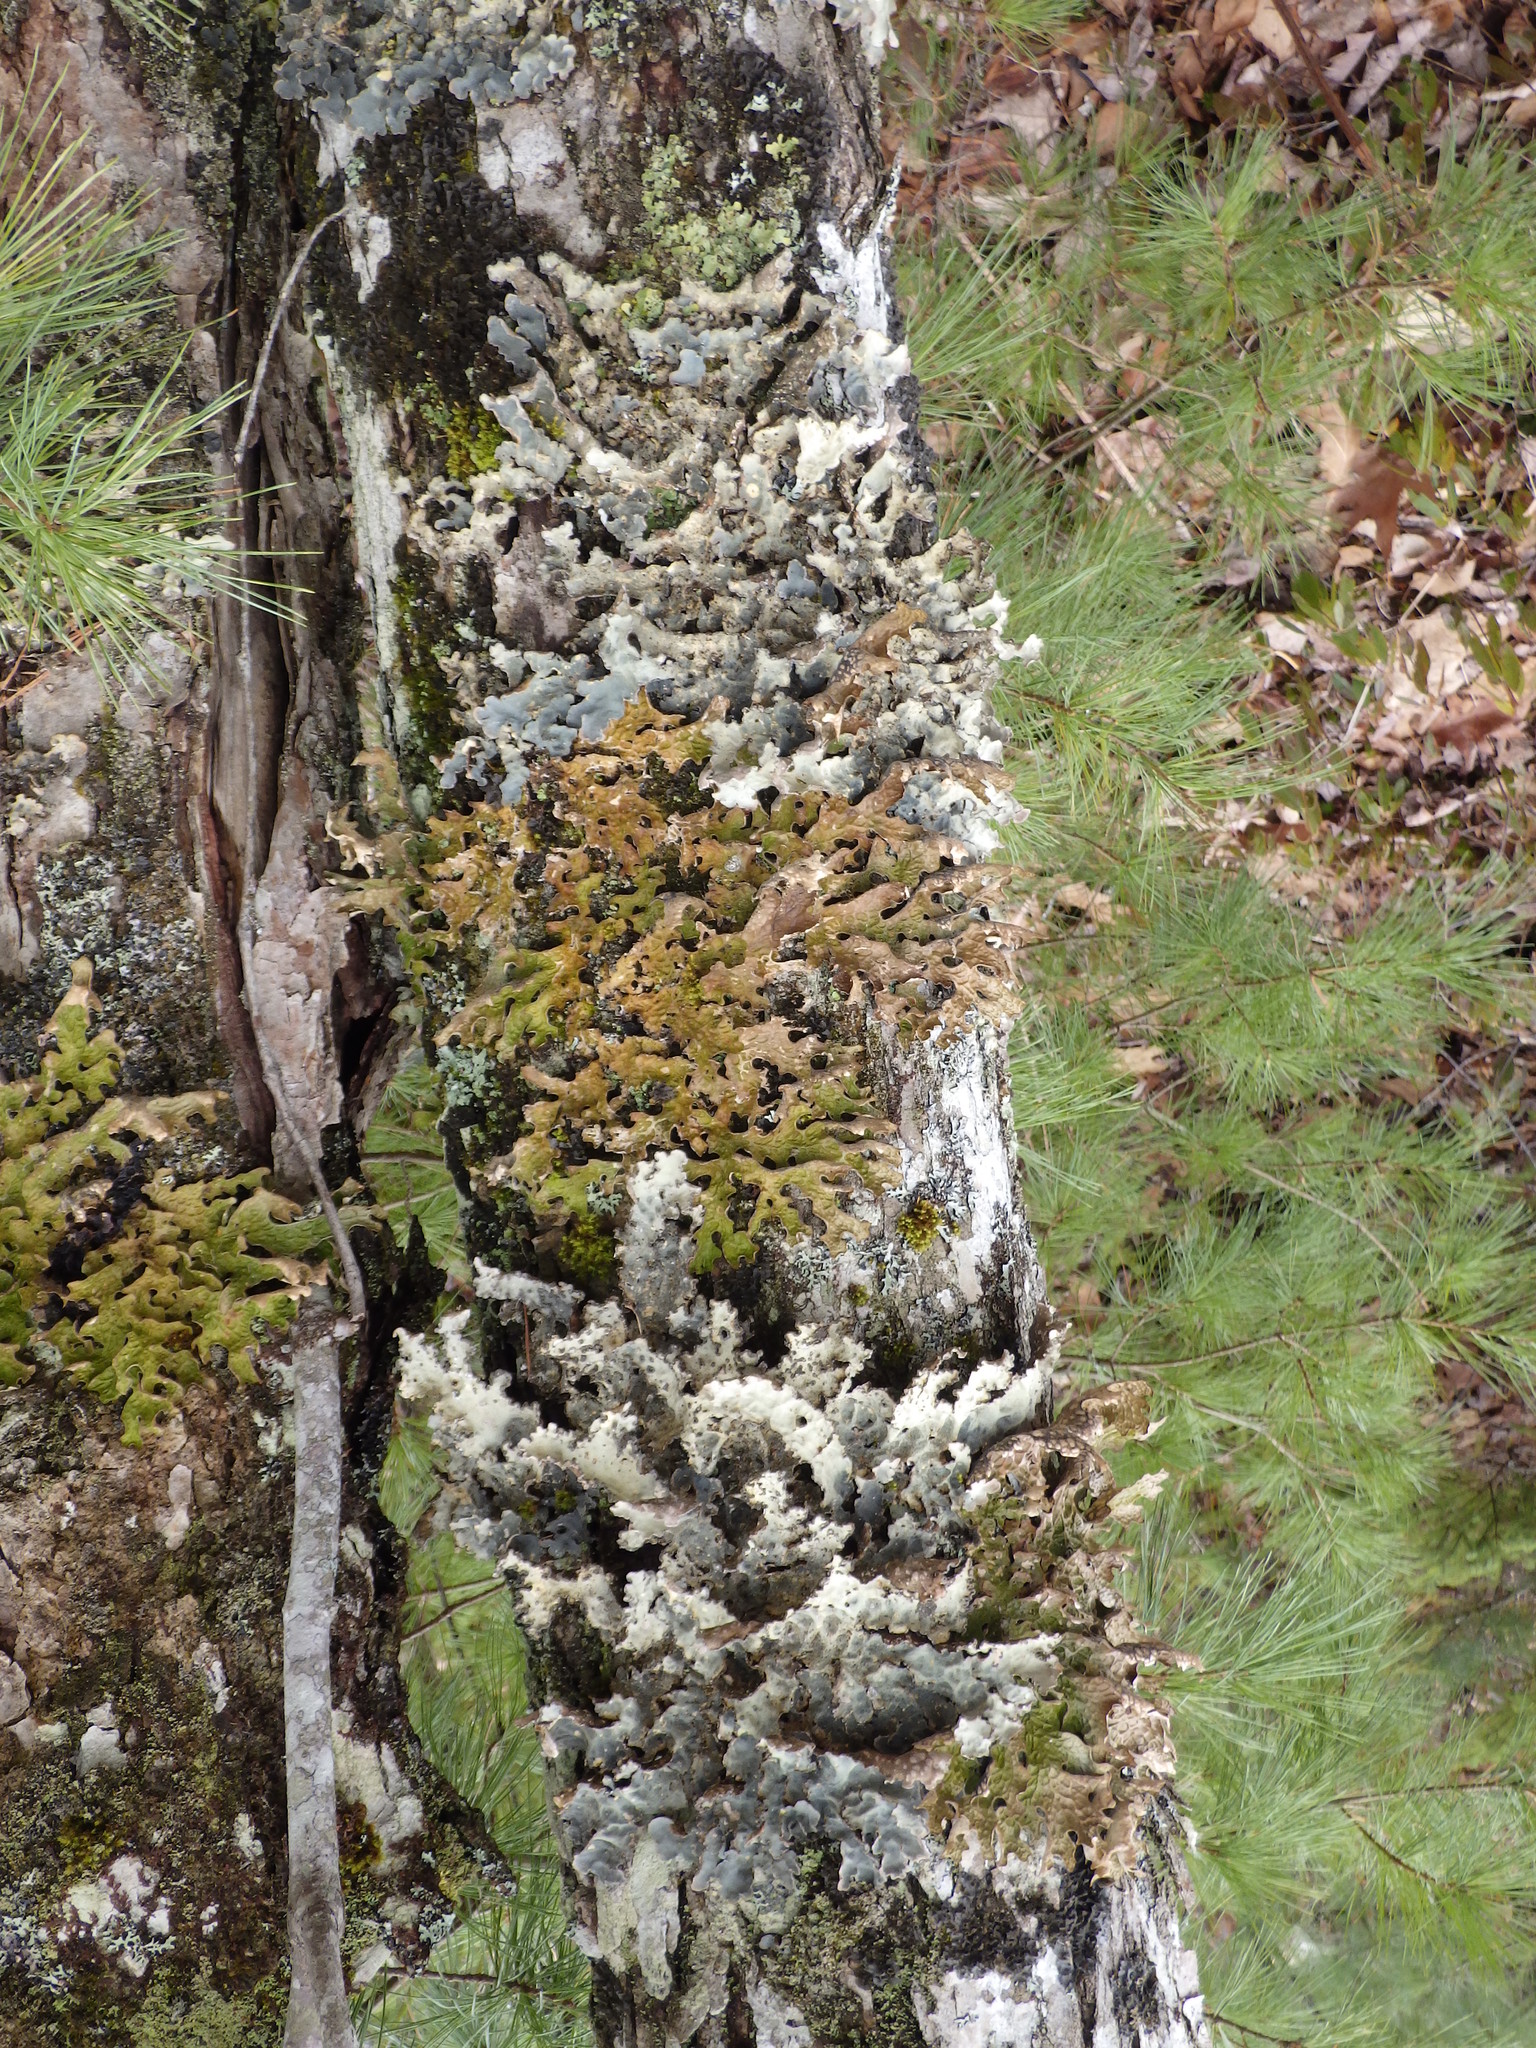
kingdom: Fungi
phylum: Ascomycota
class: Lecanoromycetes
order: Peltigerales
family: Lobariaceae
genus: Lobaria
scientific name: Lobaria pulmonaria
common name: Lungwort
